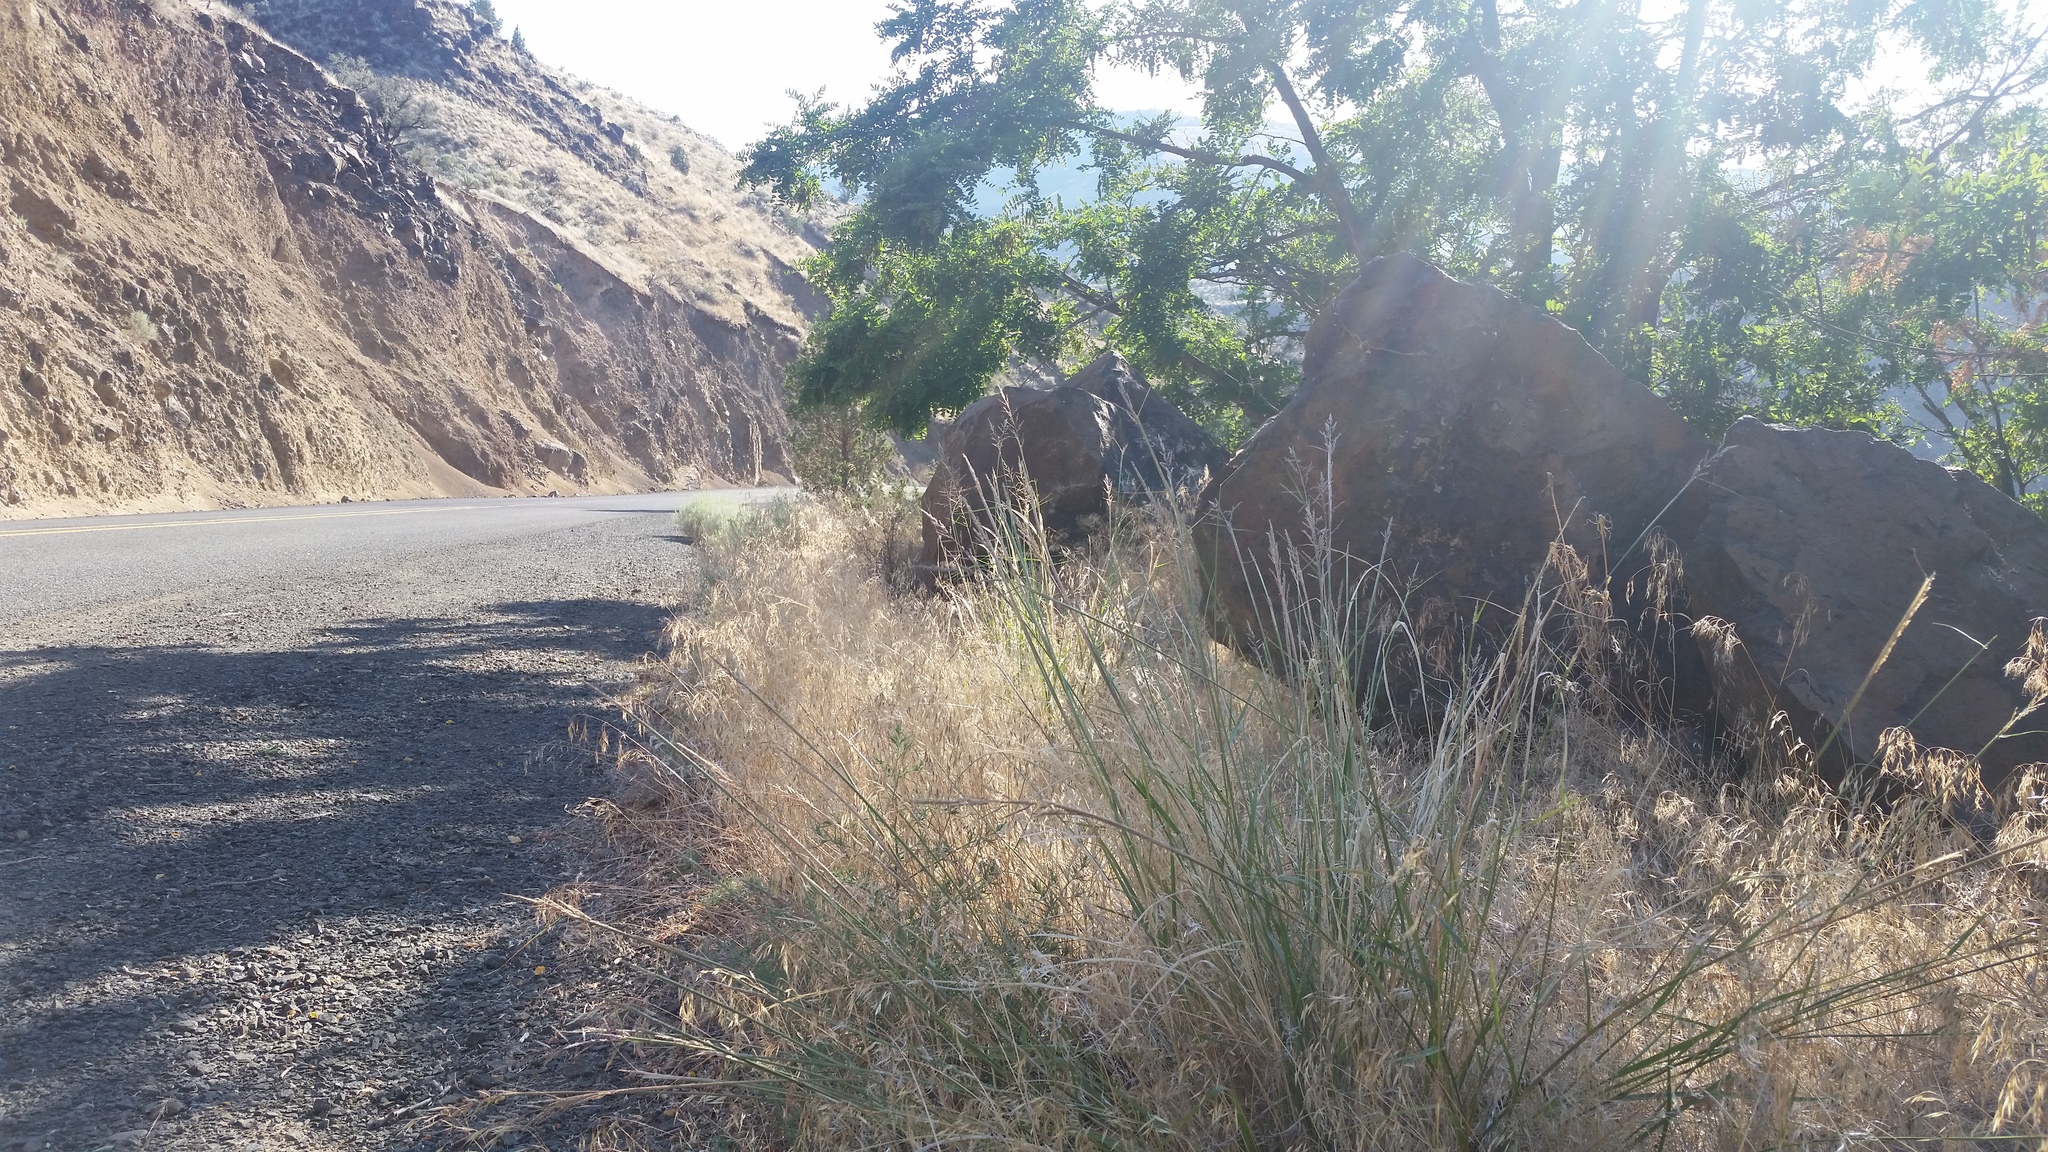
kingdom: Plantae
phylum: Tracheophyta
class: Liliopsida
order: Poales
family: Poaceae
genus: Sporobolus
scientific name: Sporobolus cryptandrus
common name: Sand dropseed
